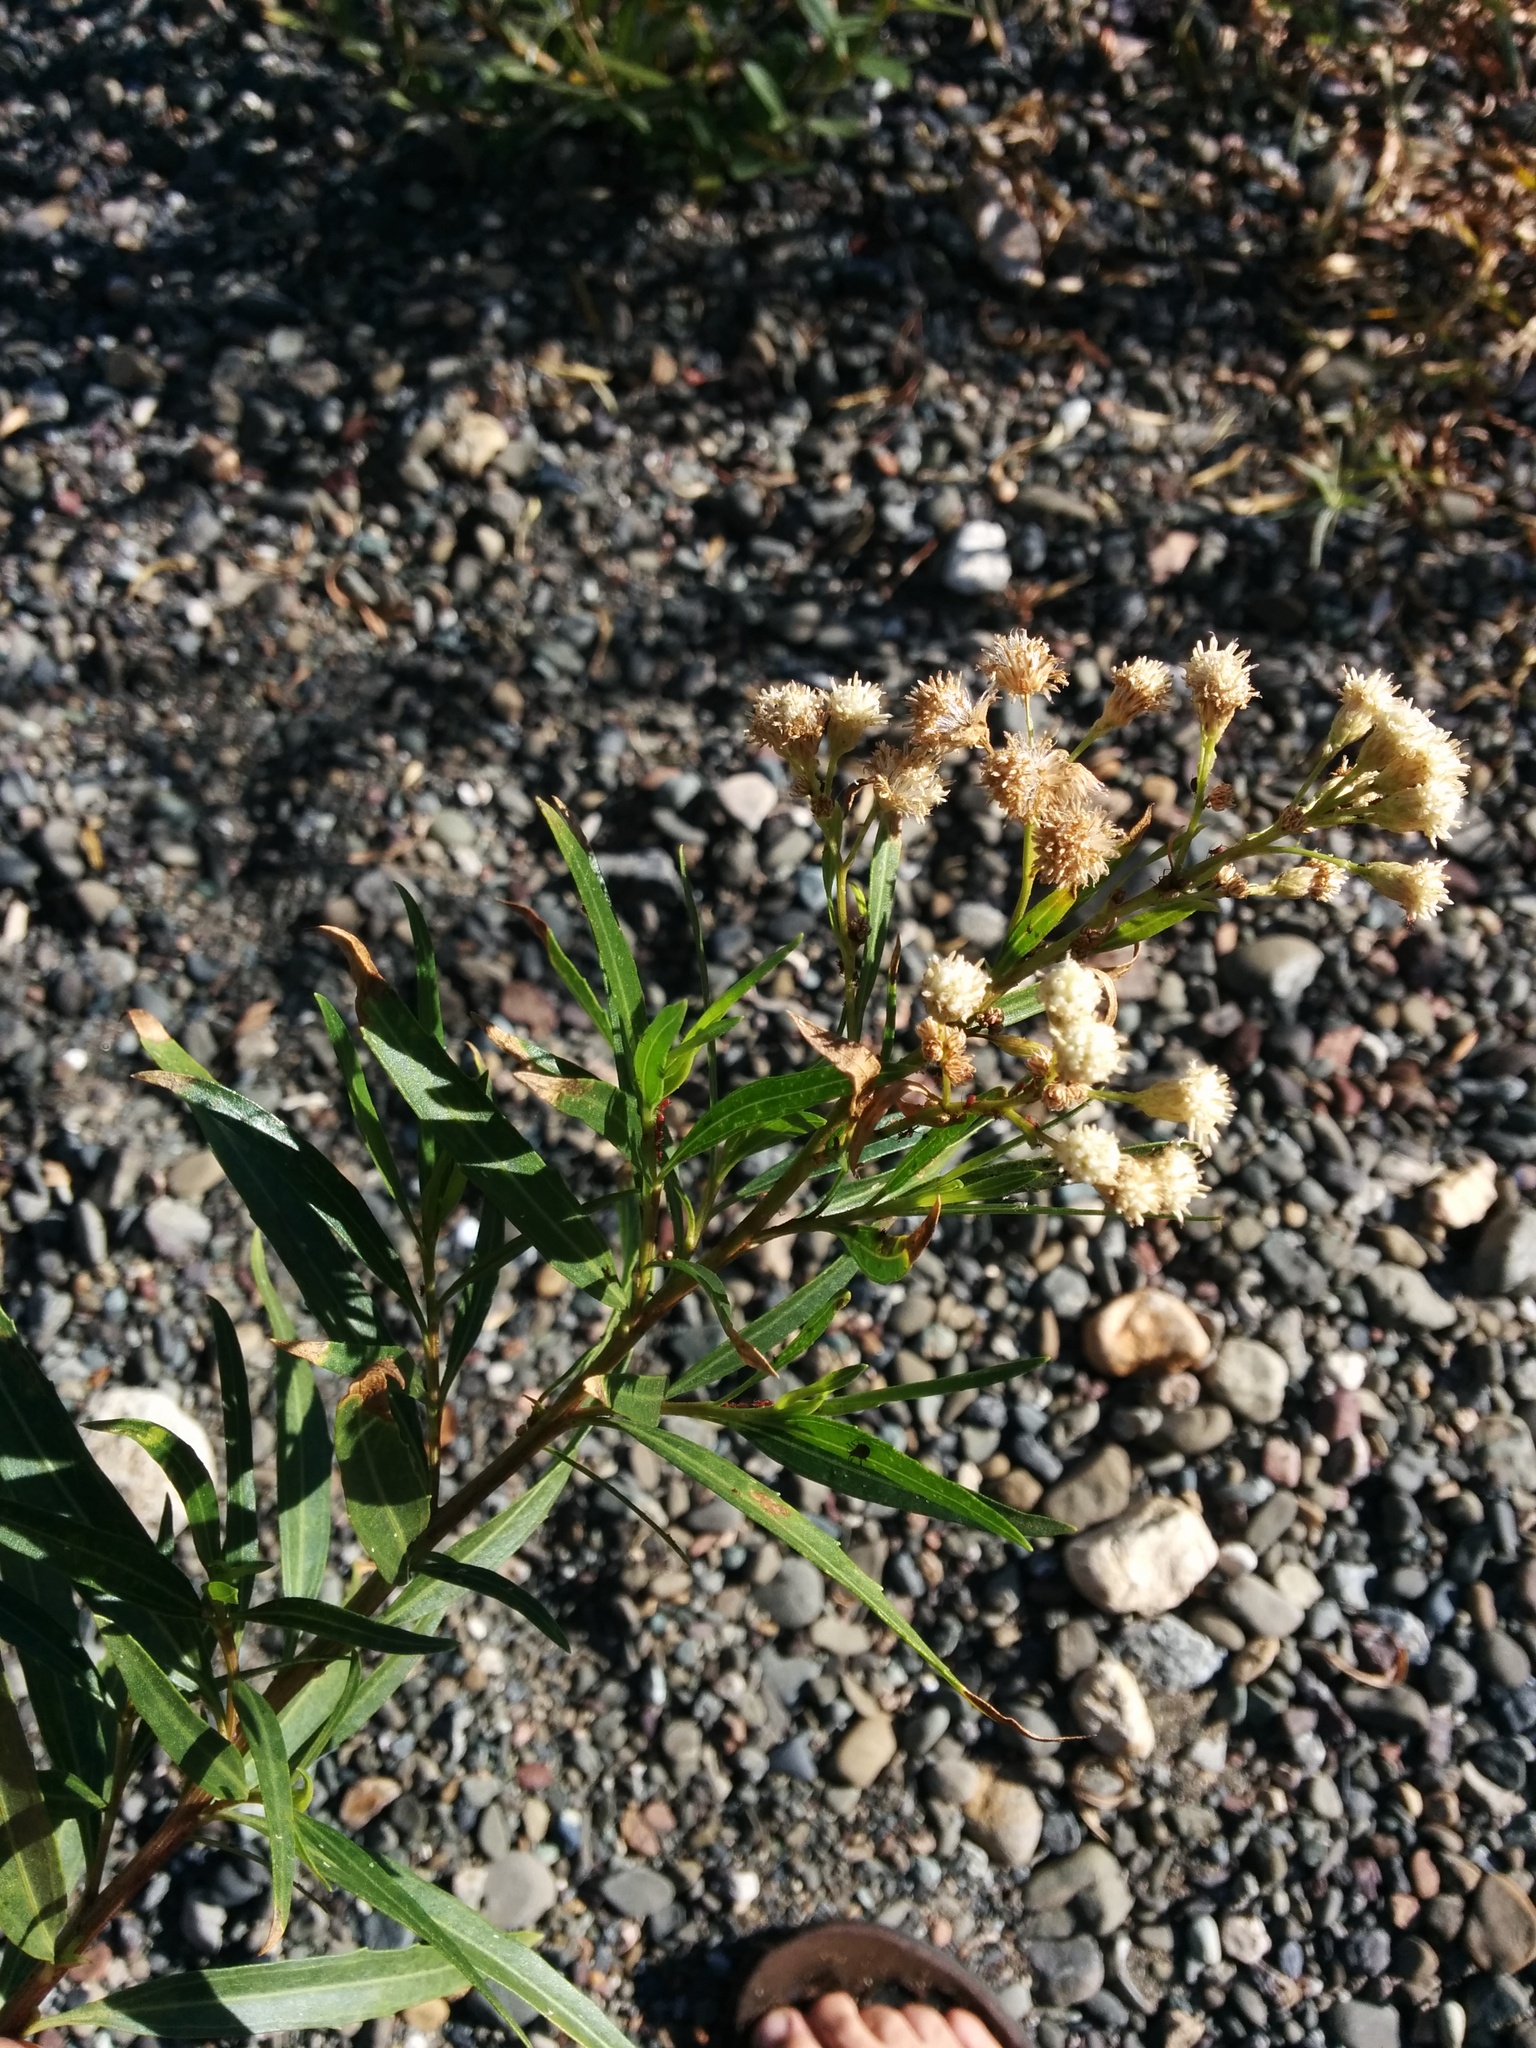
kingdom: Plantae
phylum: Tracheophyta
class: Magnoliopsida
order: Asterales
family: Asteraceae
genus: Baccharis
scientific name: Baccharis salicifolia
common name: Sticky baccharis
